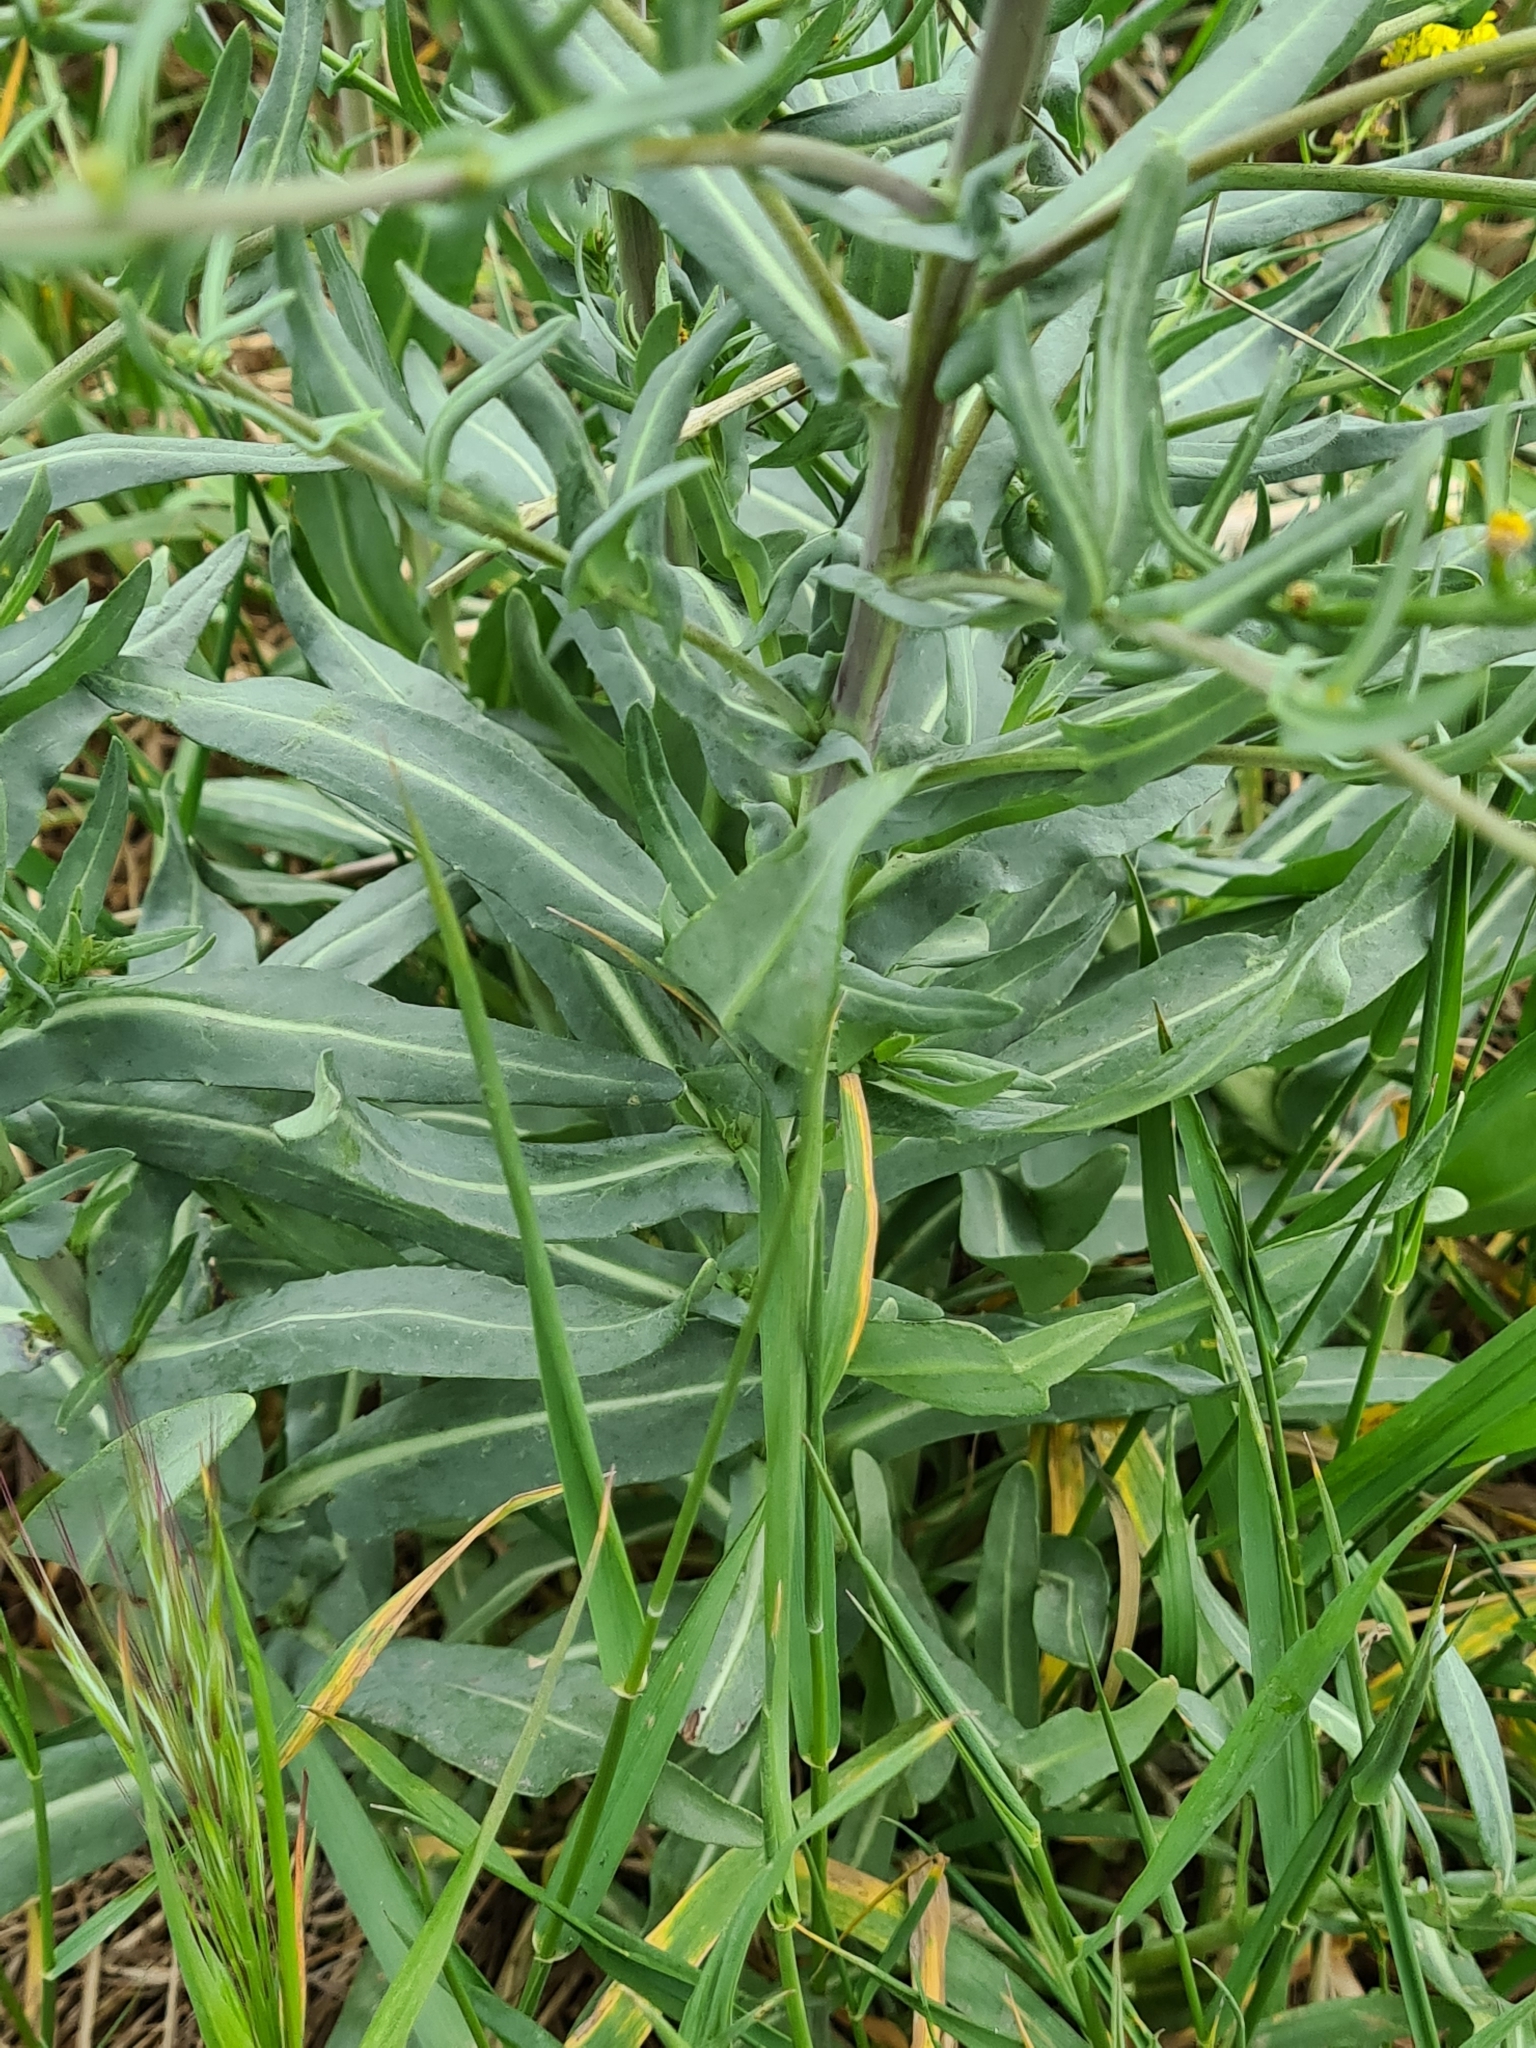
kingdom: Plantae
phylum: Tracheophyta
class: Magnoliopsida
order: Brassicales
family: Brassicaceae
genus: Isatis
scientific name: Isatis tinctoria
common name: Woad
